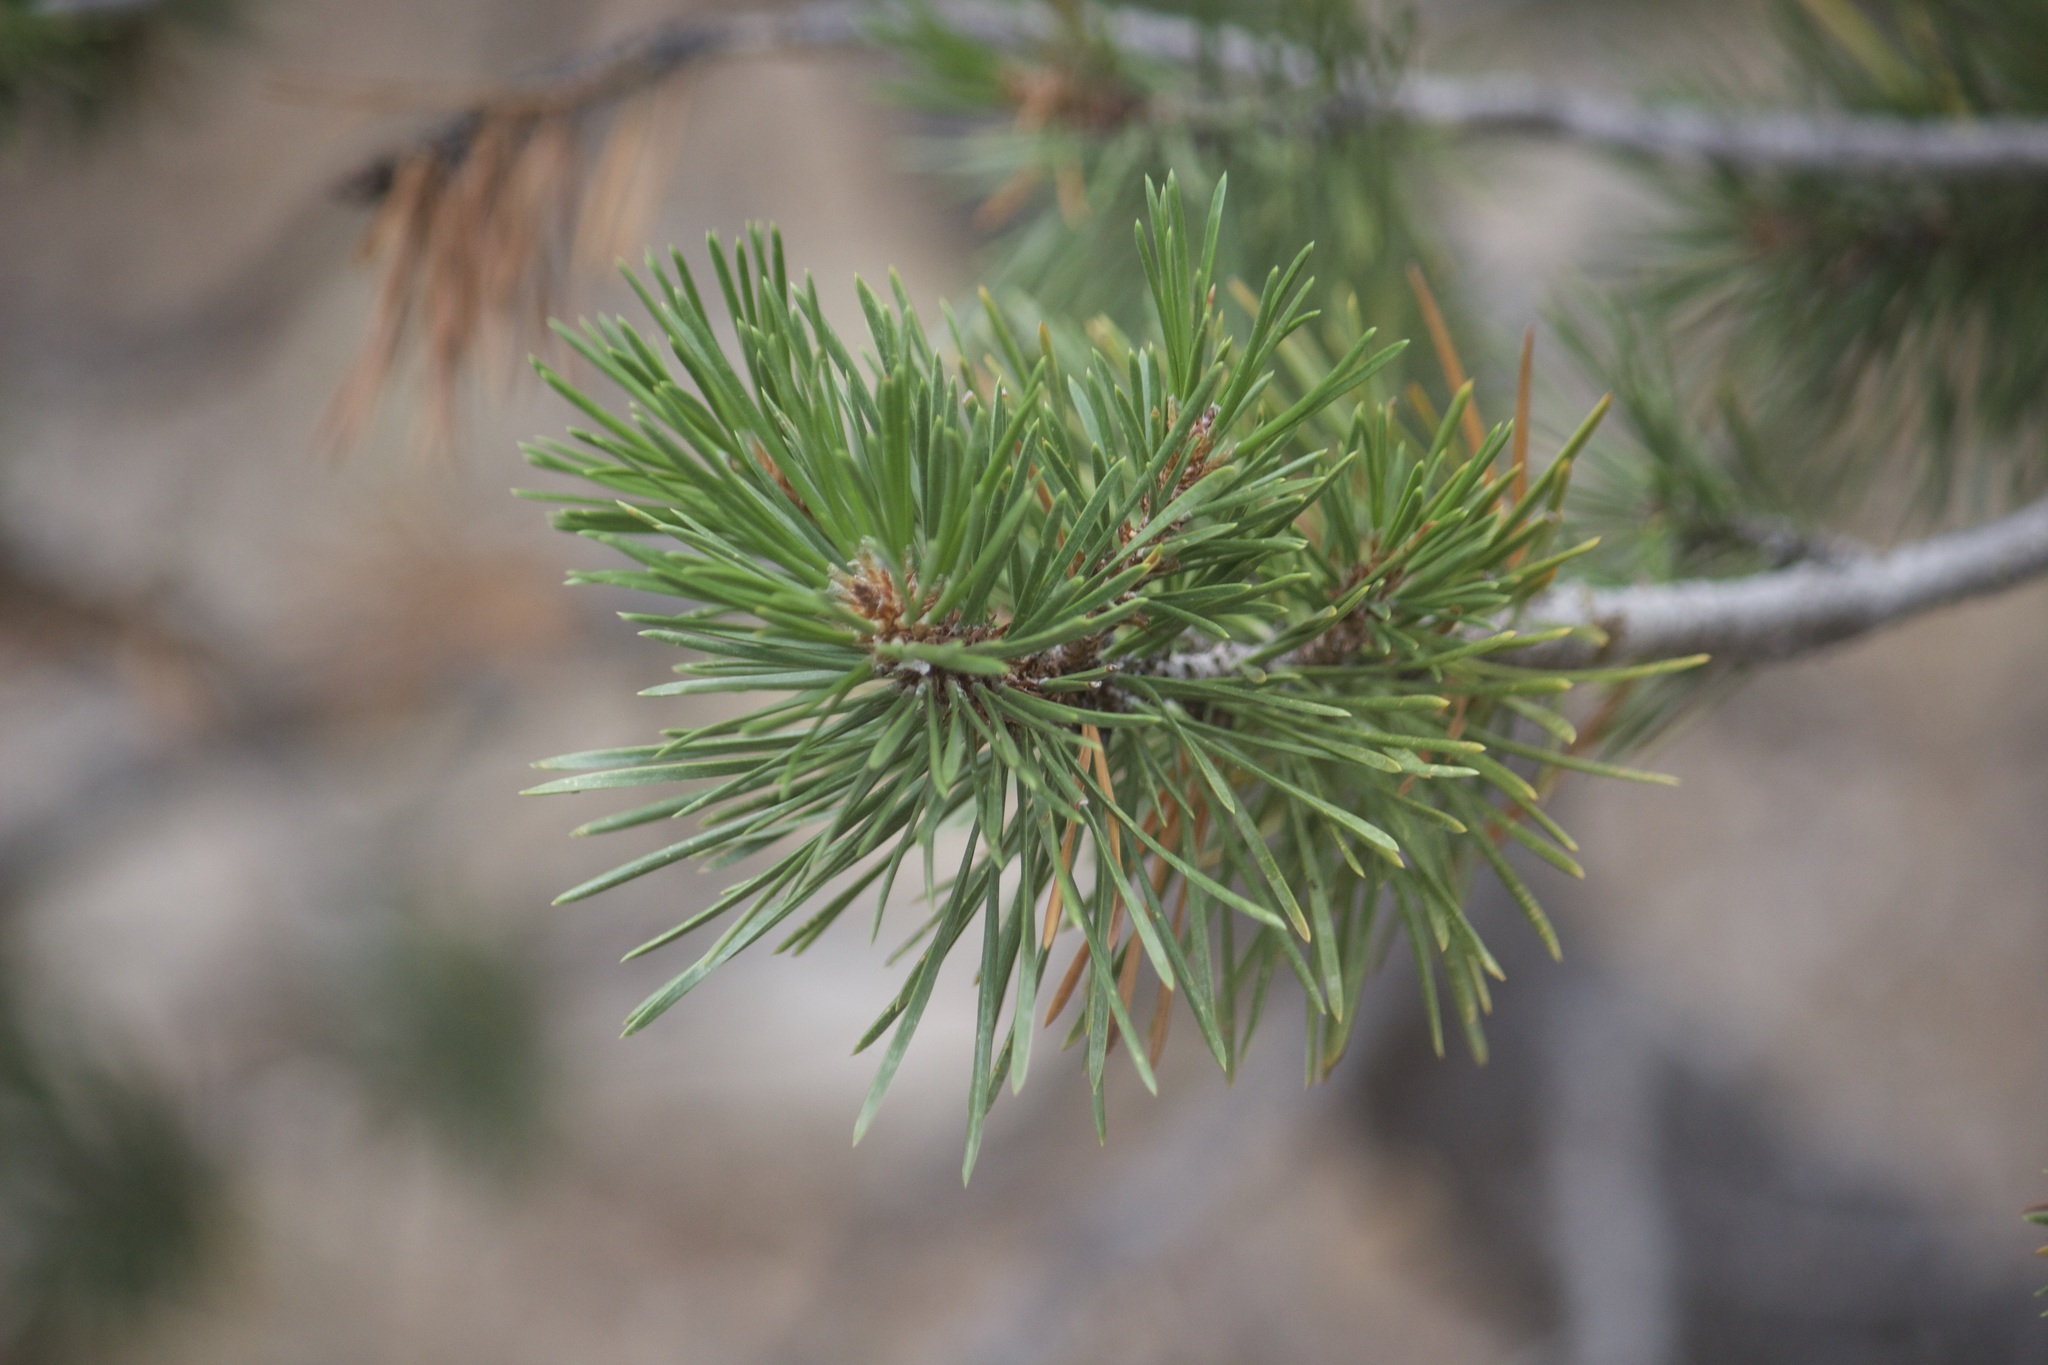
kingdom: Plantae
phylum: Tracheophyta
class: Pinopsida
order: Pinales
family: Pinaceae
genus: Pinus
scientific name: Pinus contorta
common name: Lodgepole pine
